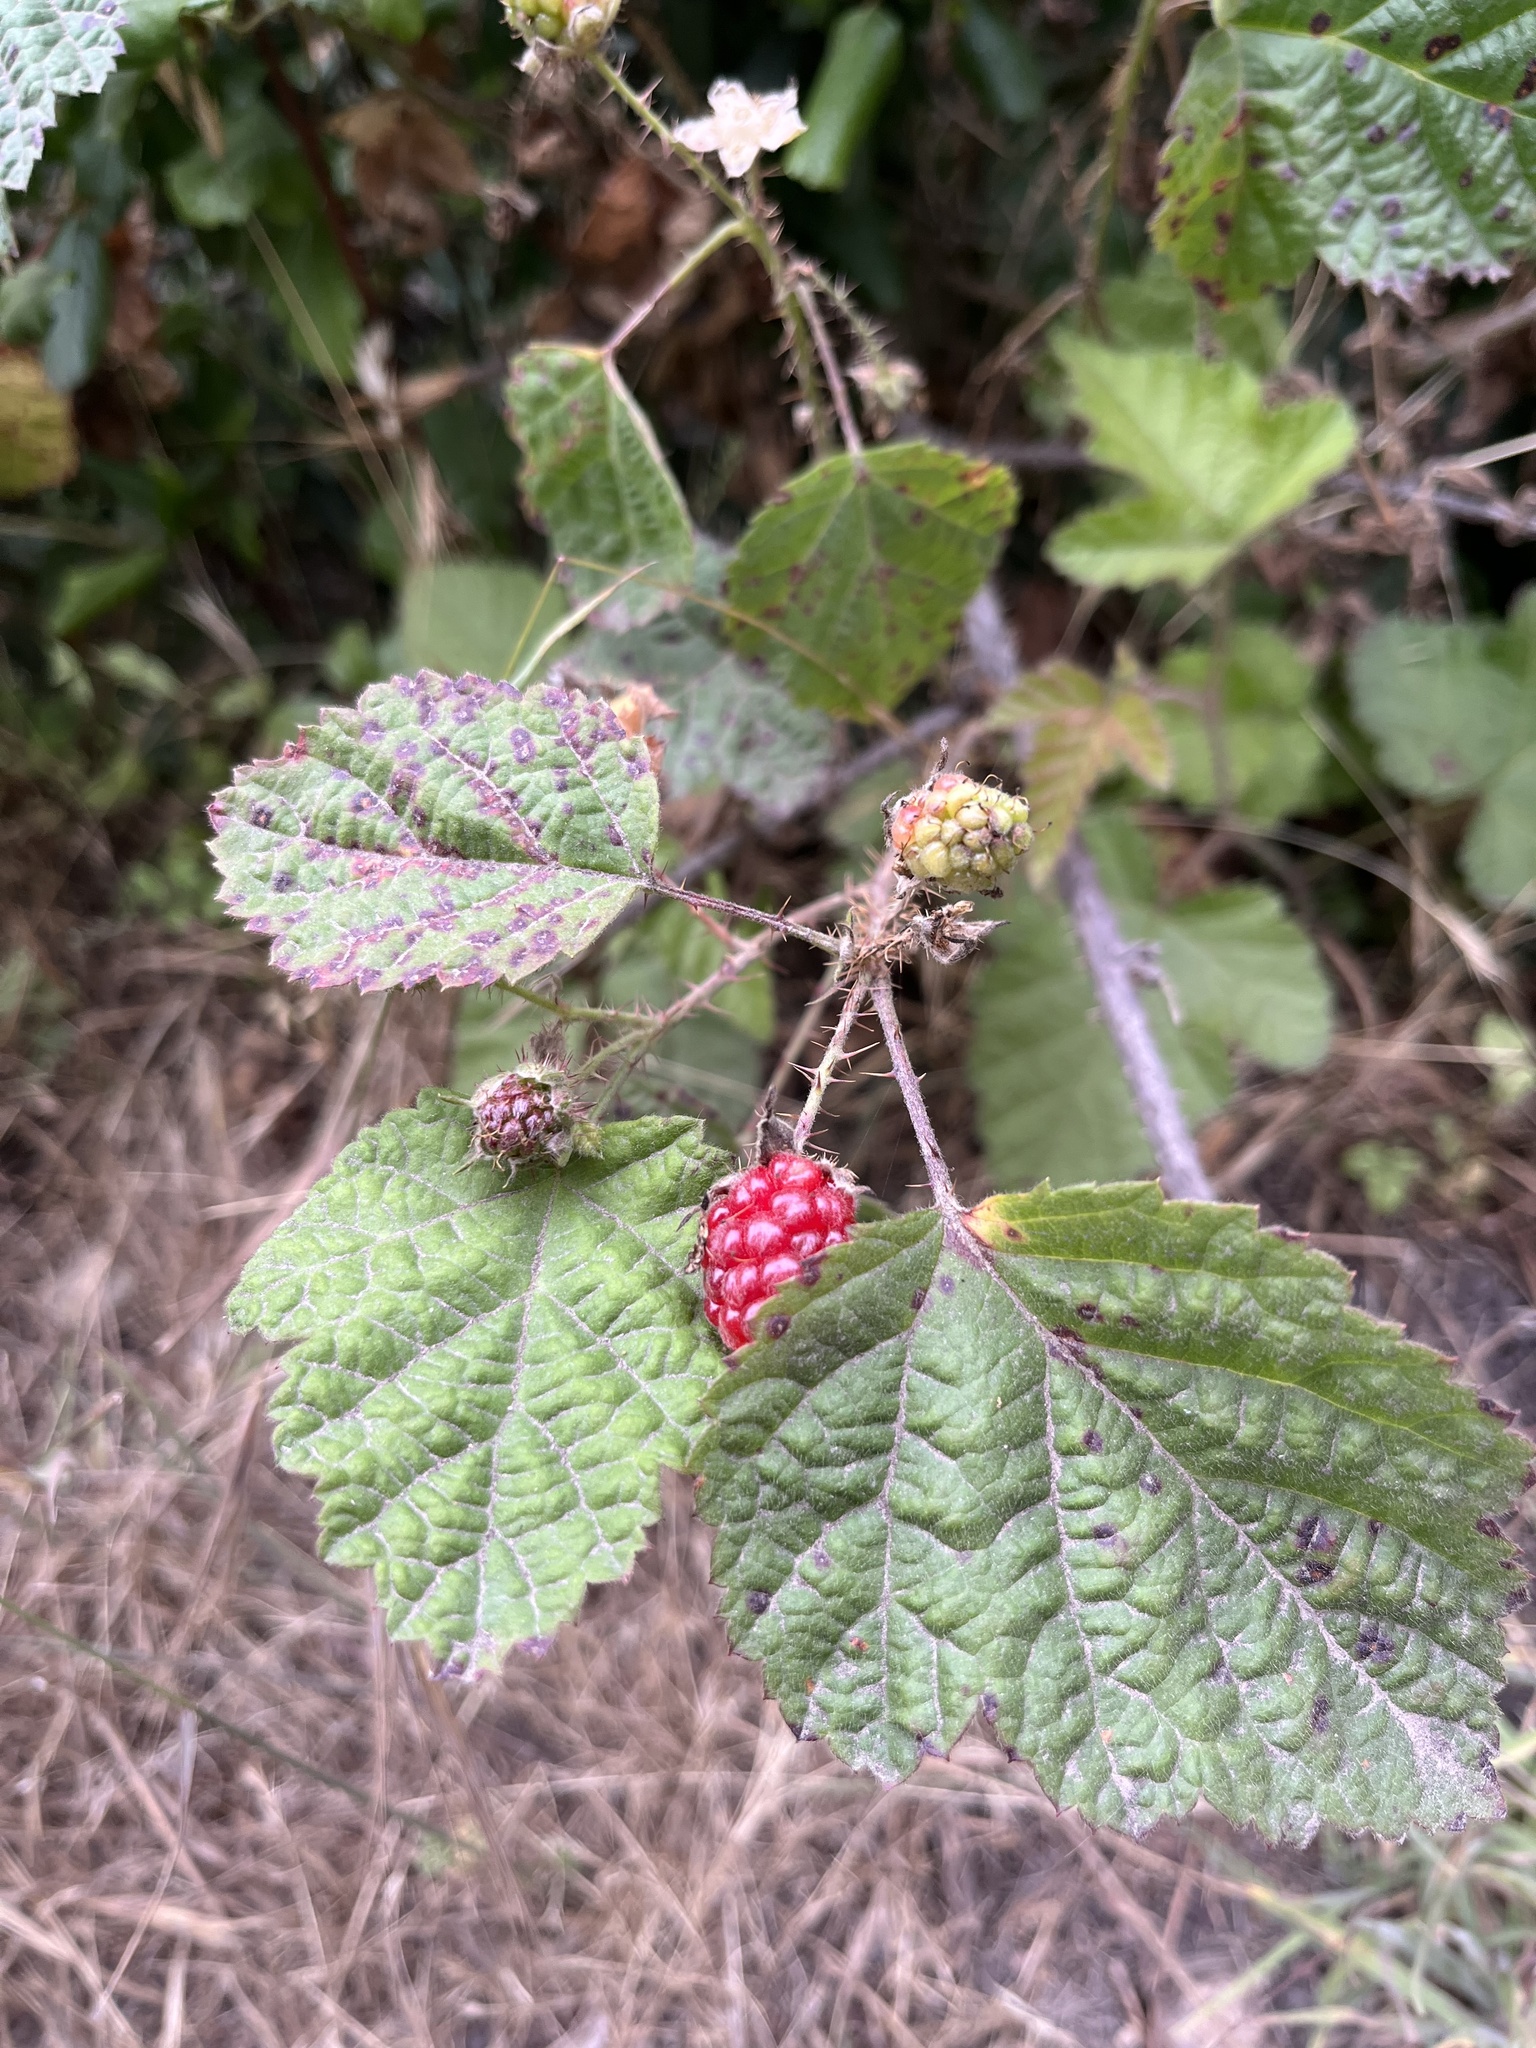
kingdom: Plantae
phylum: Tracheophyta
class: Magnoliopsida
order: Rosales
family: Rosaceae
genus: Rubus
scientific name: Rubus ursinus
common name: Pacific blackberry
